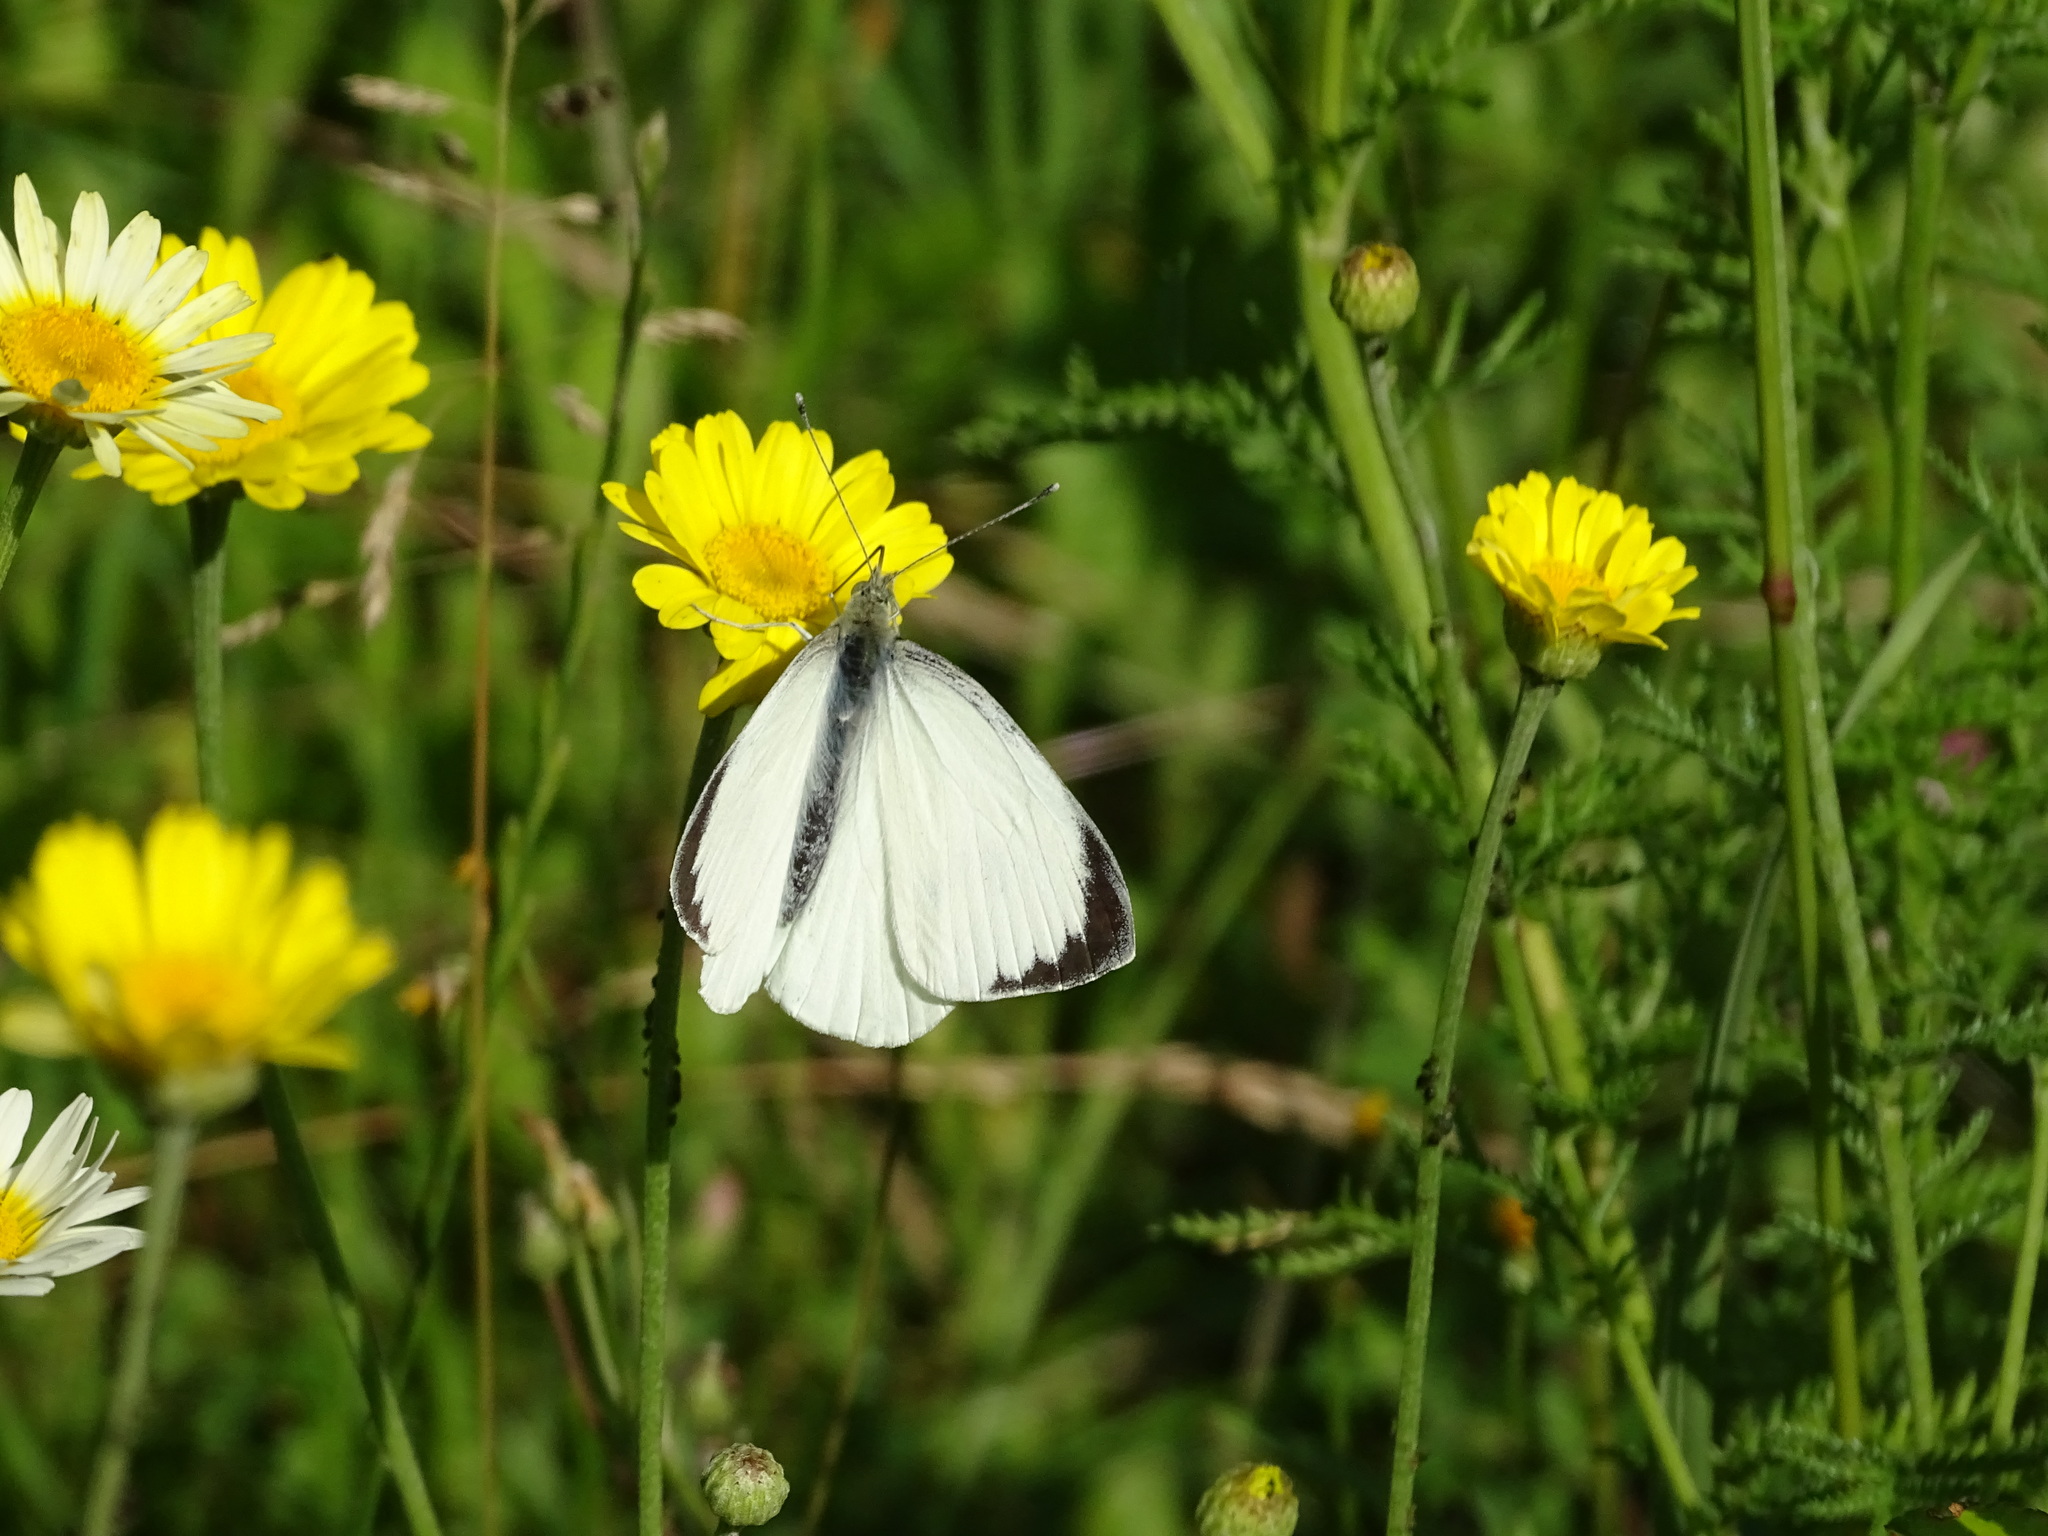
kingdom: Animalia
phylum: Arthropoda
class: Insecta
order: Lepidoptera
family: Pieridae
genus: Pieris
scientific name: Pieris brassicae
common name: Large white
